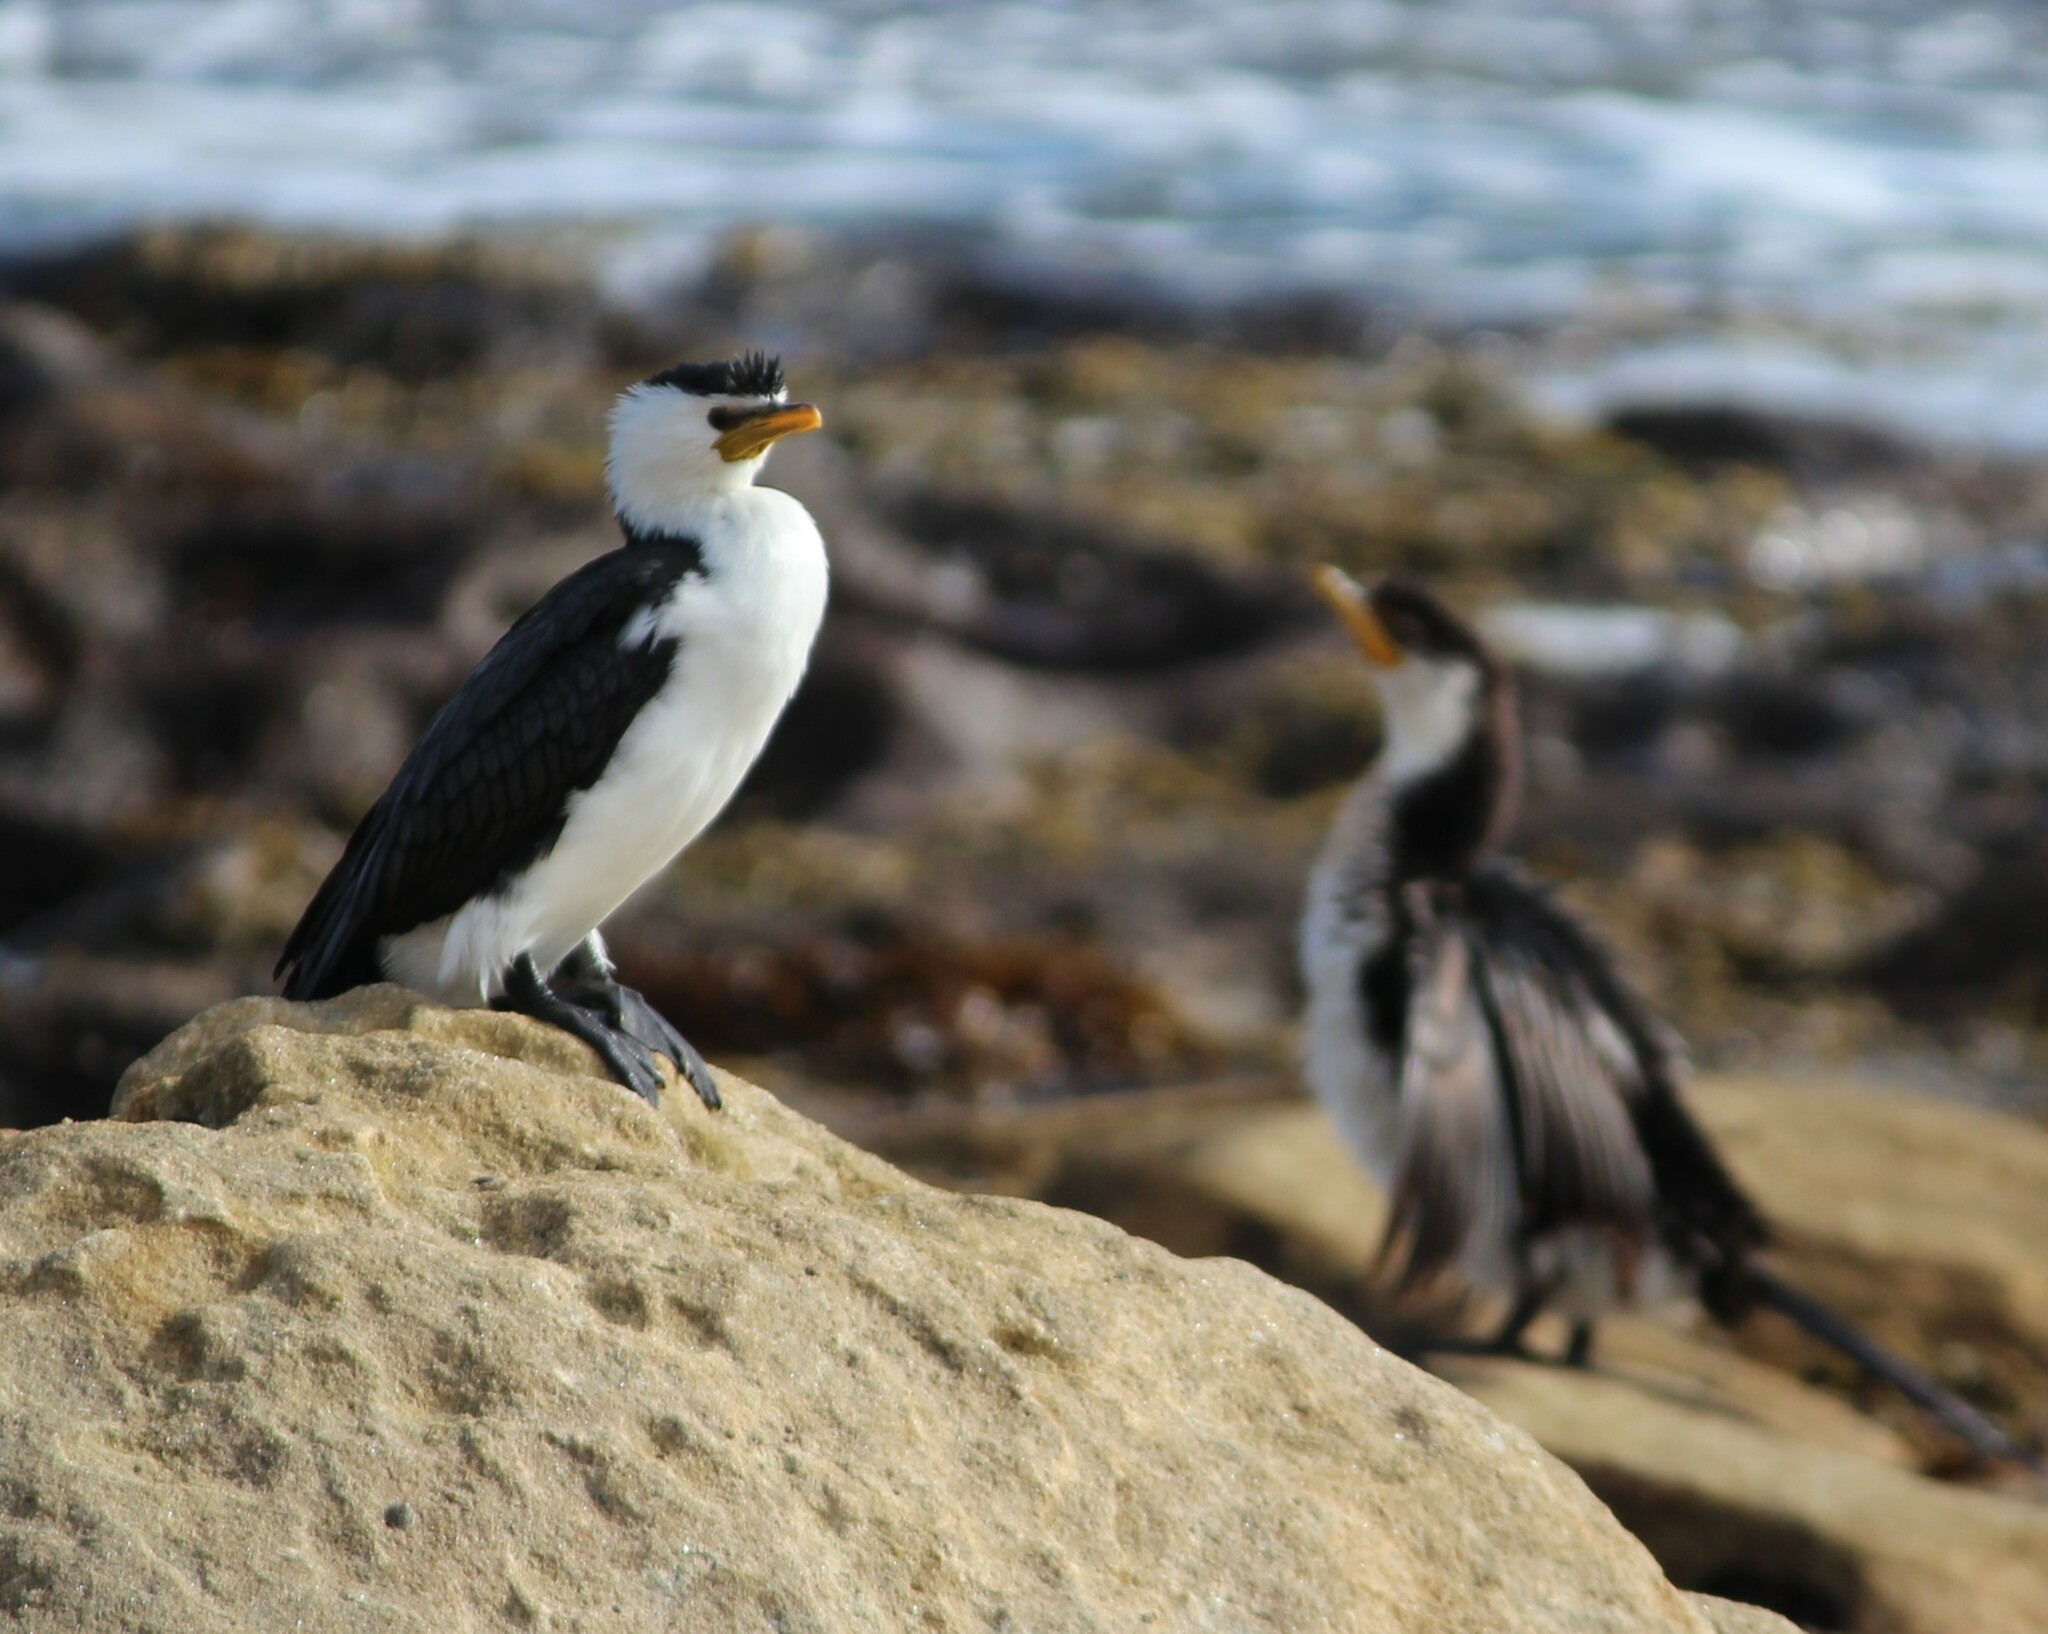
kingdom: Animalia
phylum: Chordata
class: Aves
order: Suliformes
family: Phalacrocoracidae
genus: Microcarbo
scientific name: Microcarbo melanoleucos
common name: Little pied cormorant
